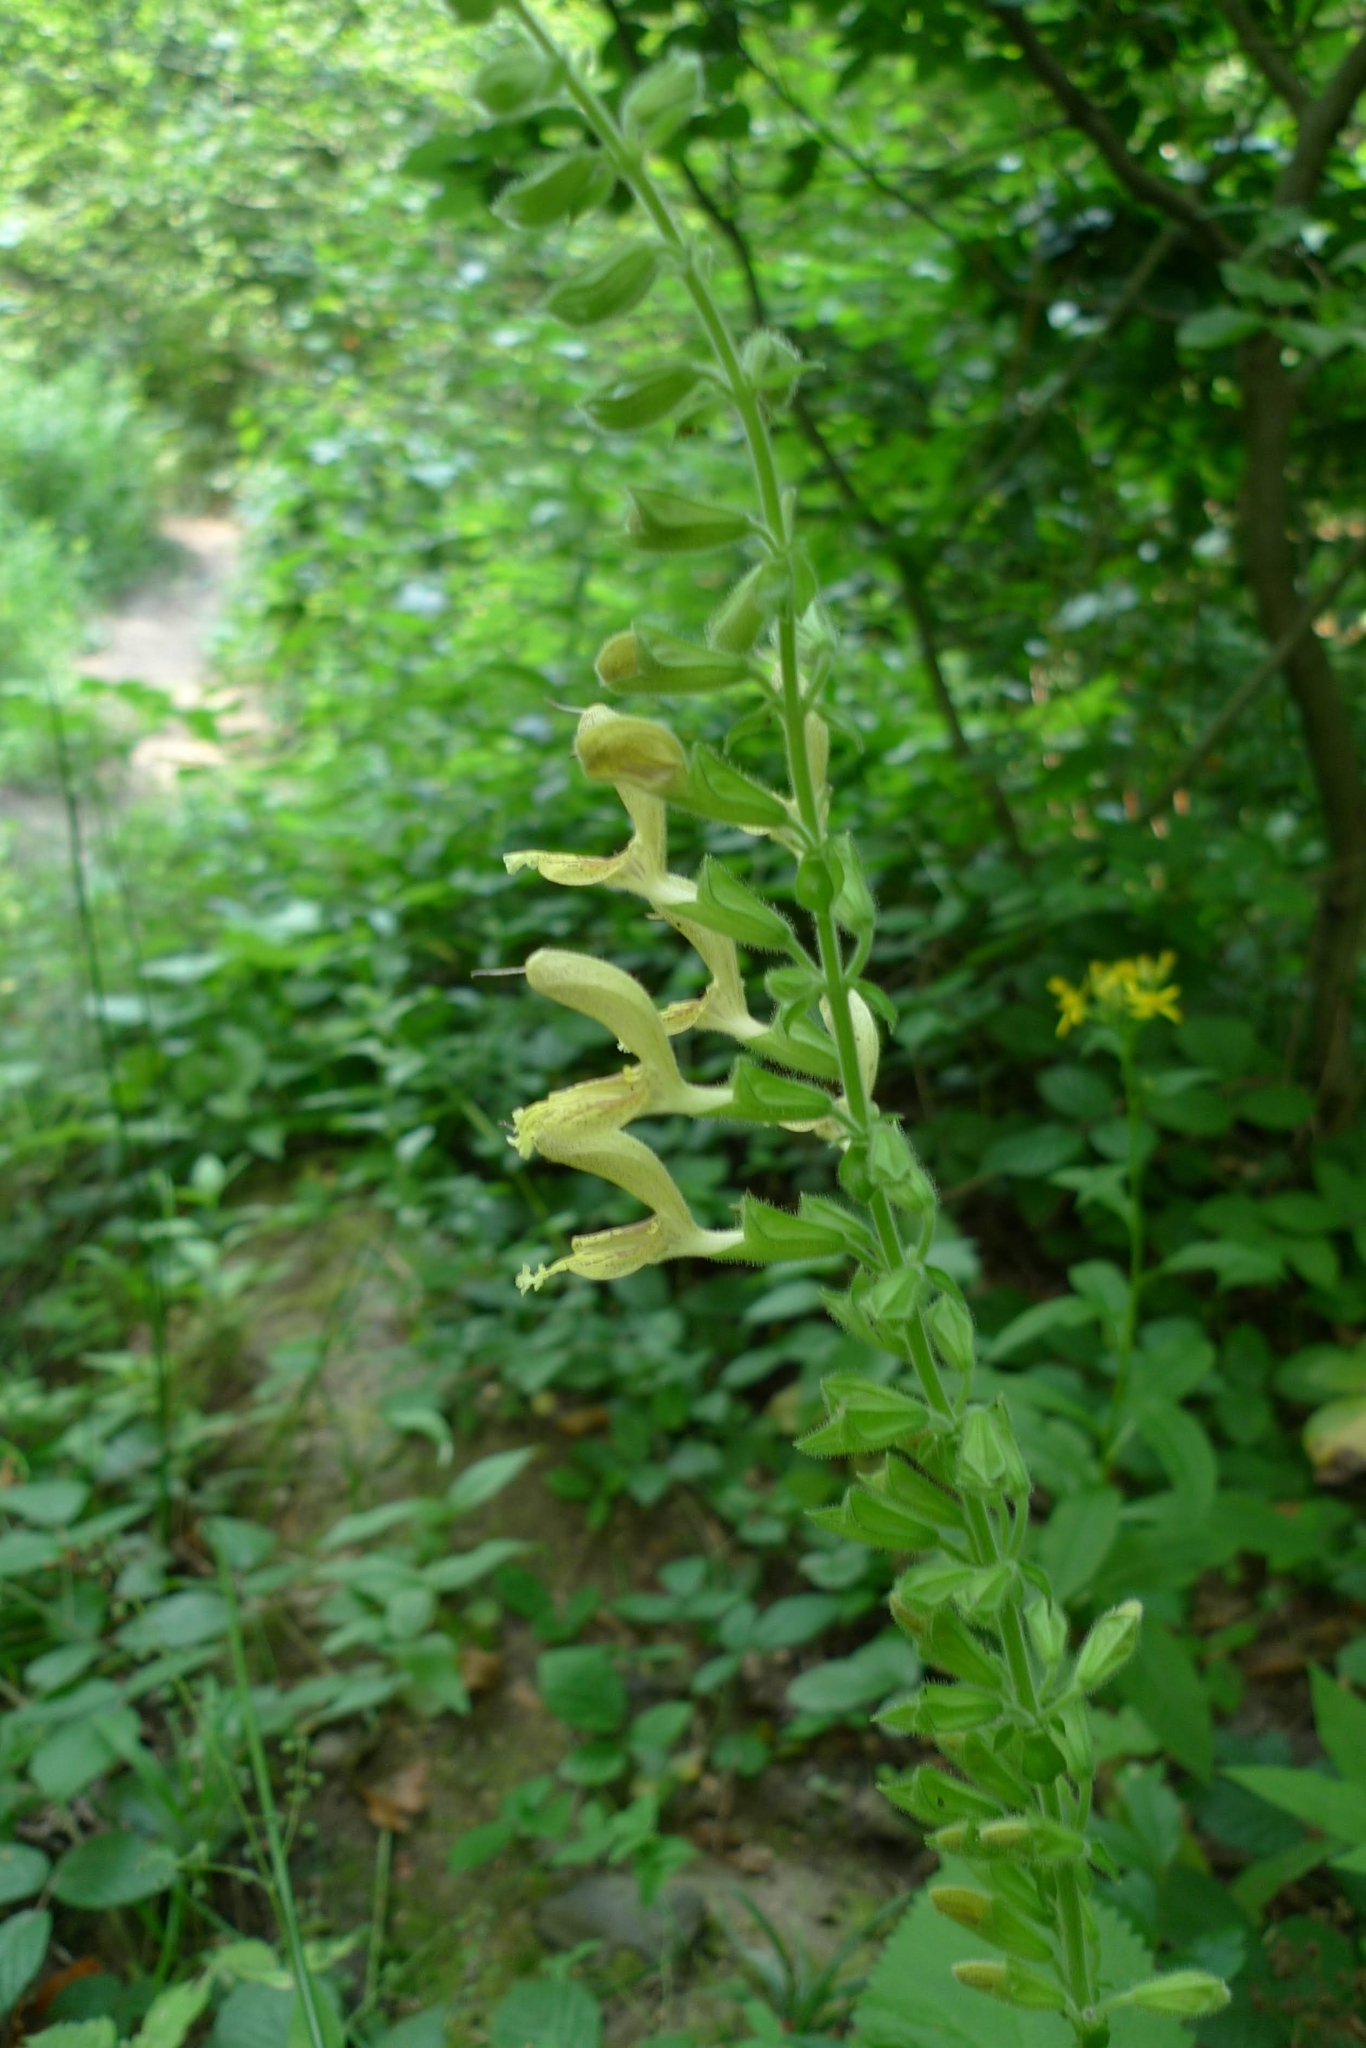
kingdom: Plantae
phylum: Tracheophyta
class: Magnoliopsida
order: Lamiales
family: Lamiaceae
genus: Salvia
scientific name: Salvia glutinosa
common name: Sticky clary
